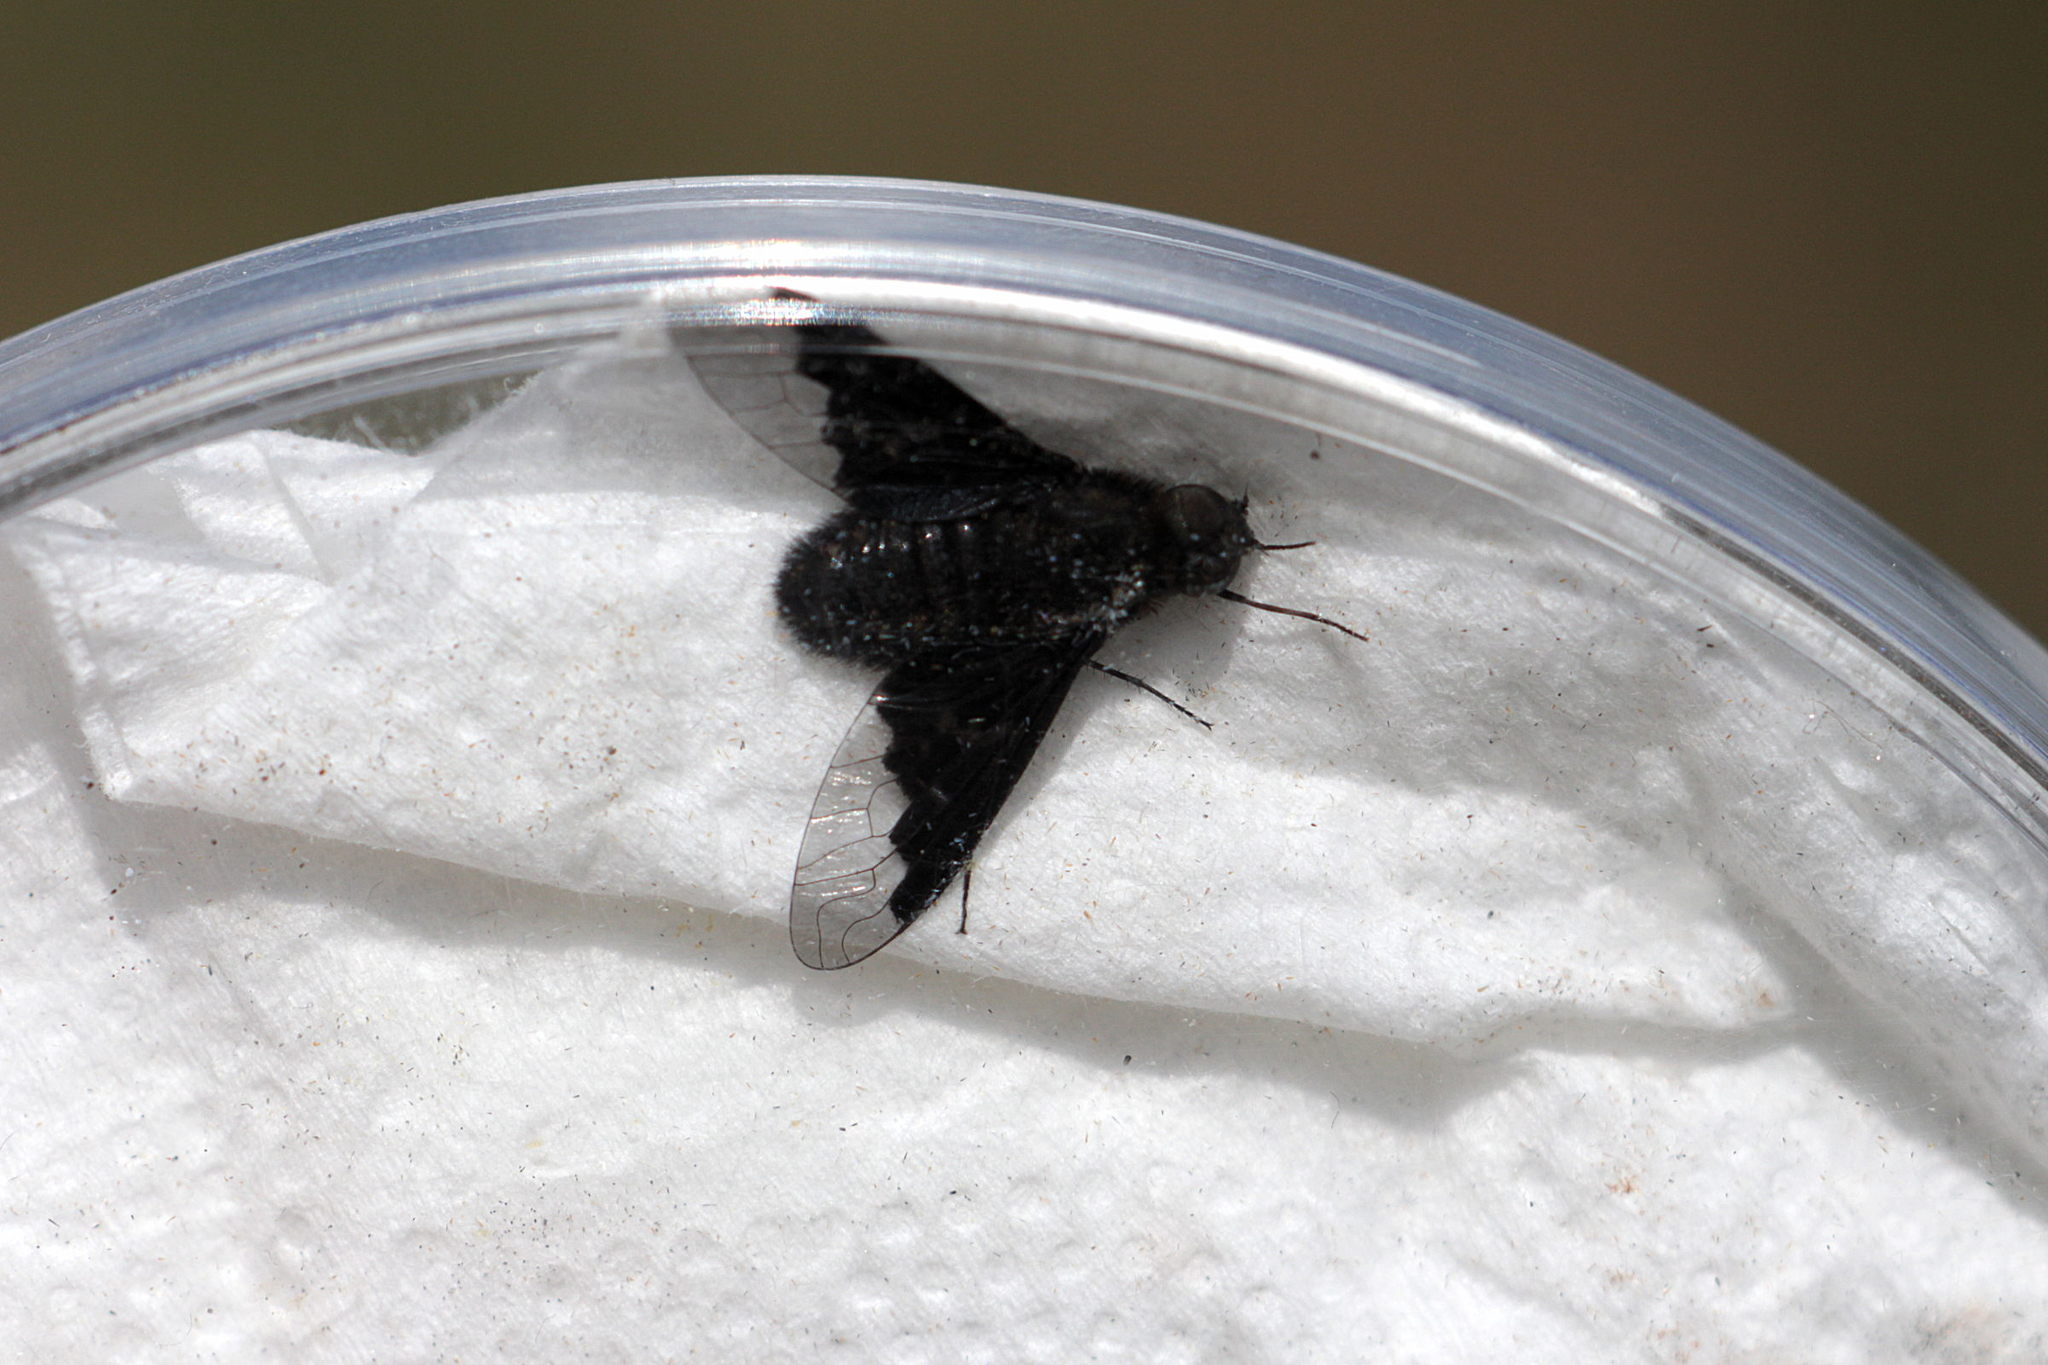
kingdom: Animalia
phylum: Arthropoda
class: Insecta
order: Diptera
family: Bombyliidae
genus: Hemipenthes
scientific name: Hemipenthes morio
